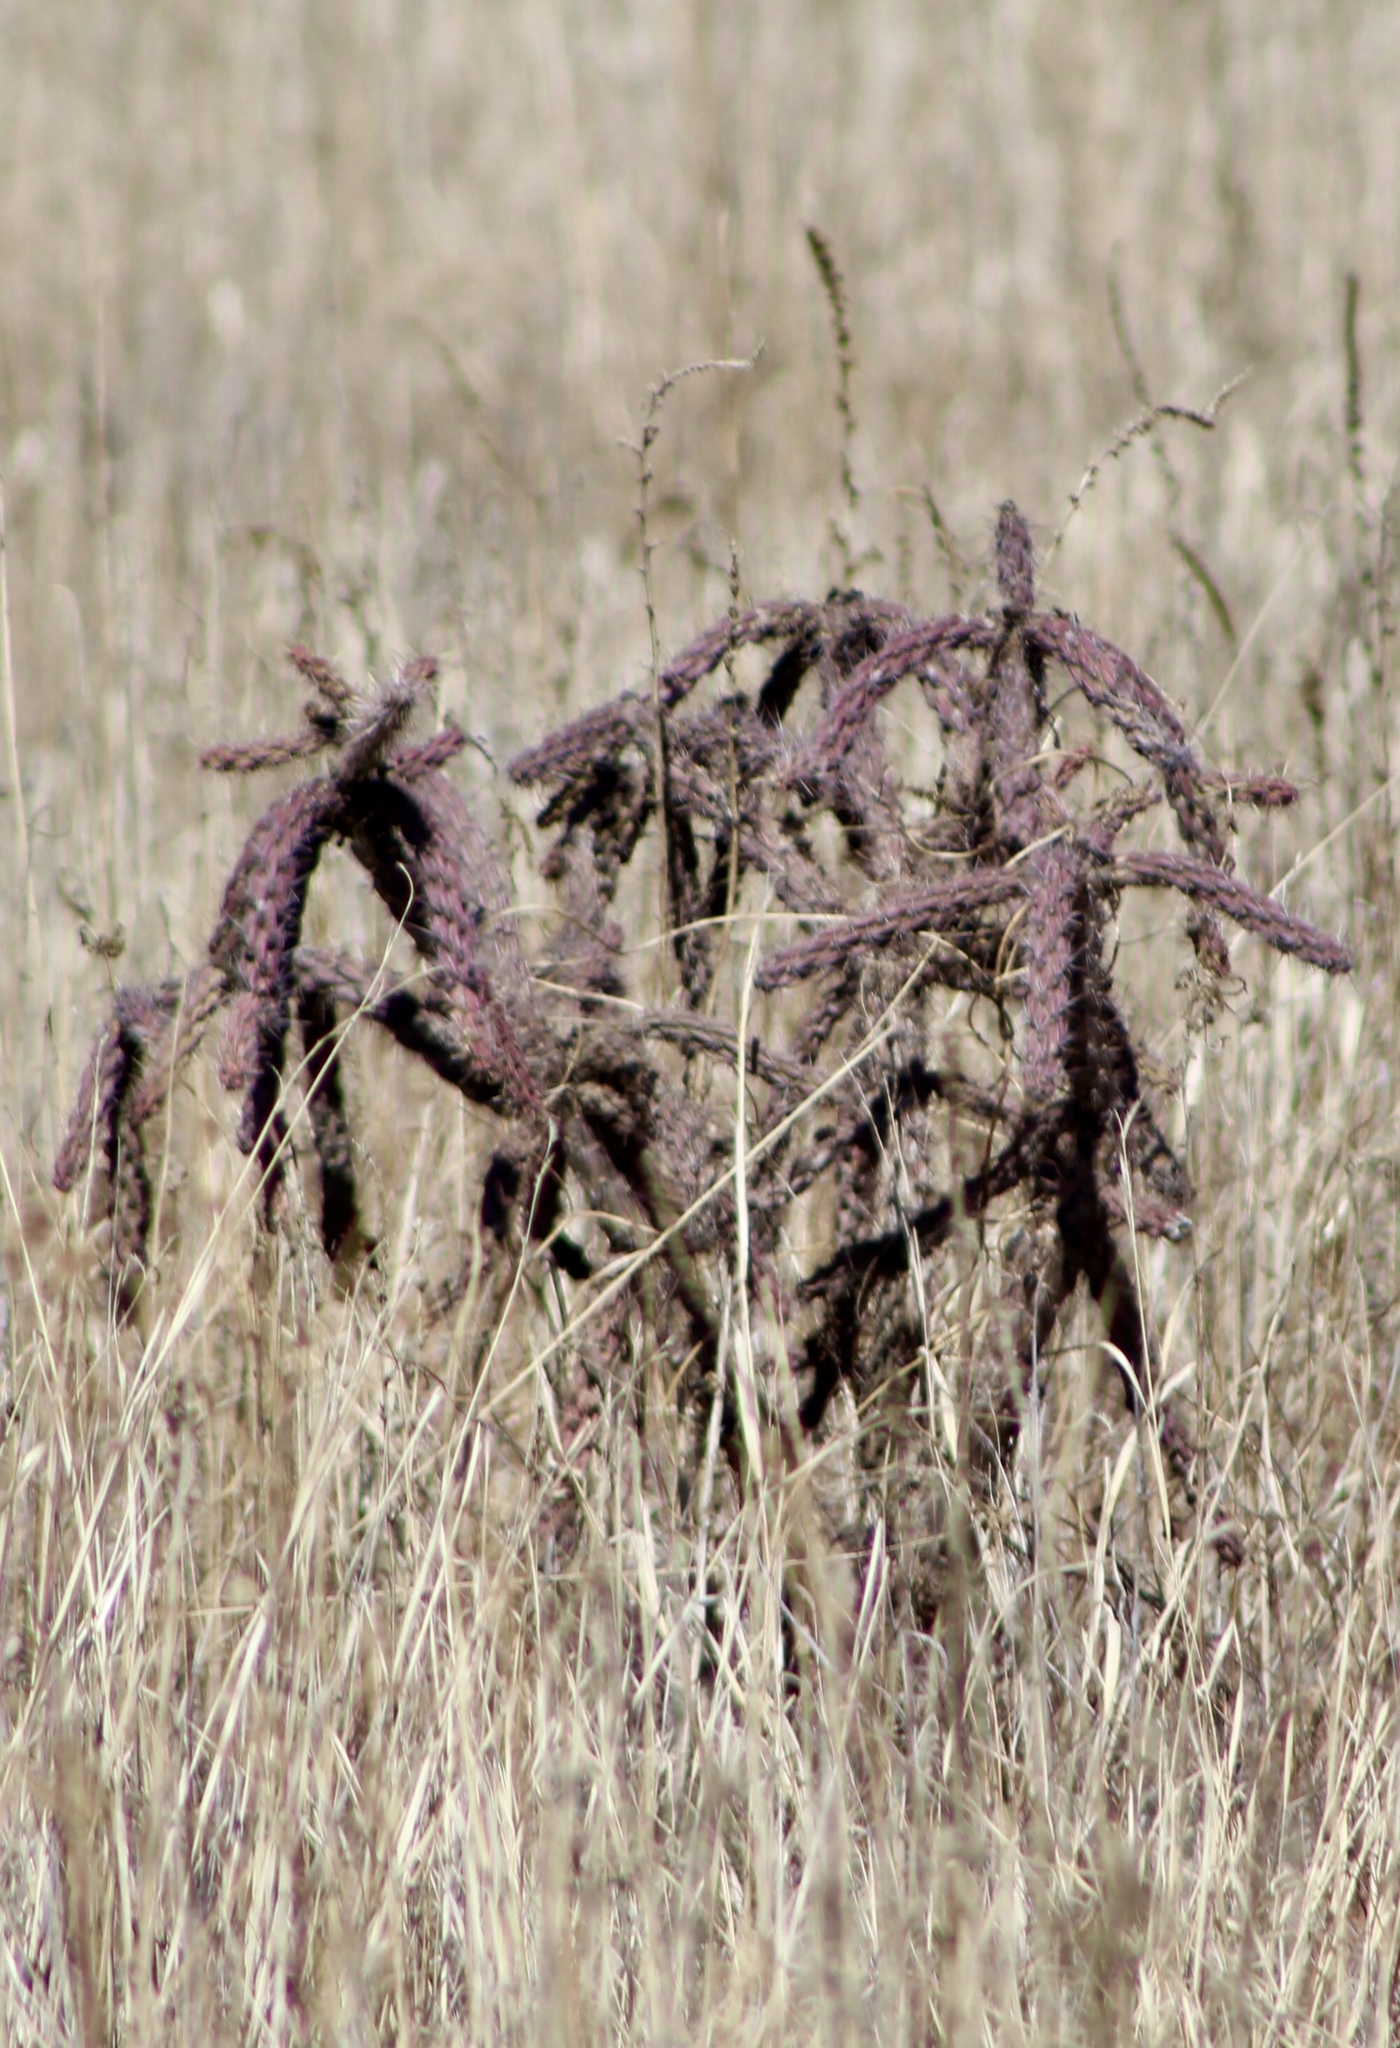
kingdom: Plantae
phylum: Tracheophyta
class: Magnoliopsida
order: Caryophyllales
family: Cactaceae
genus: Cylindropuntia
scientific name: Cylindropuntia imbricata
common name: Candelabrum cactus
